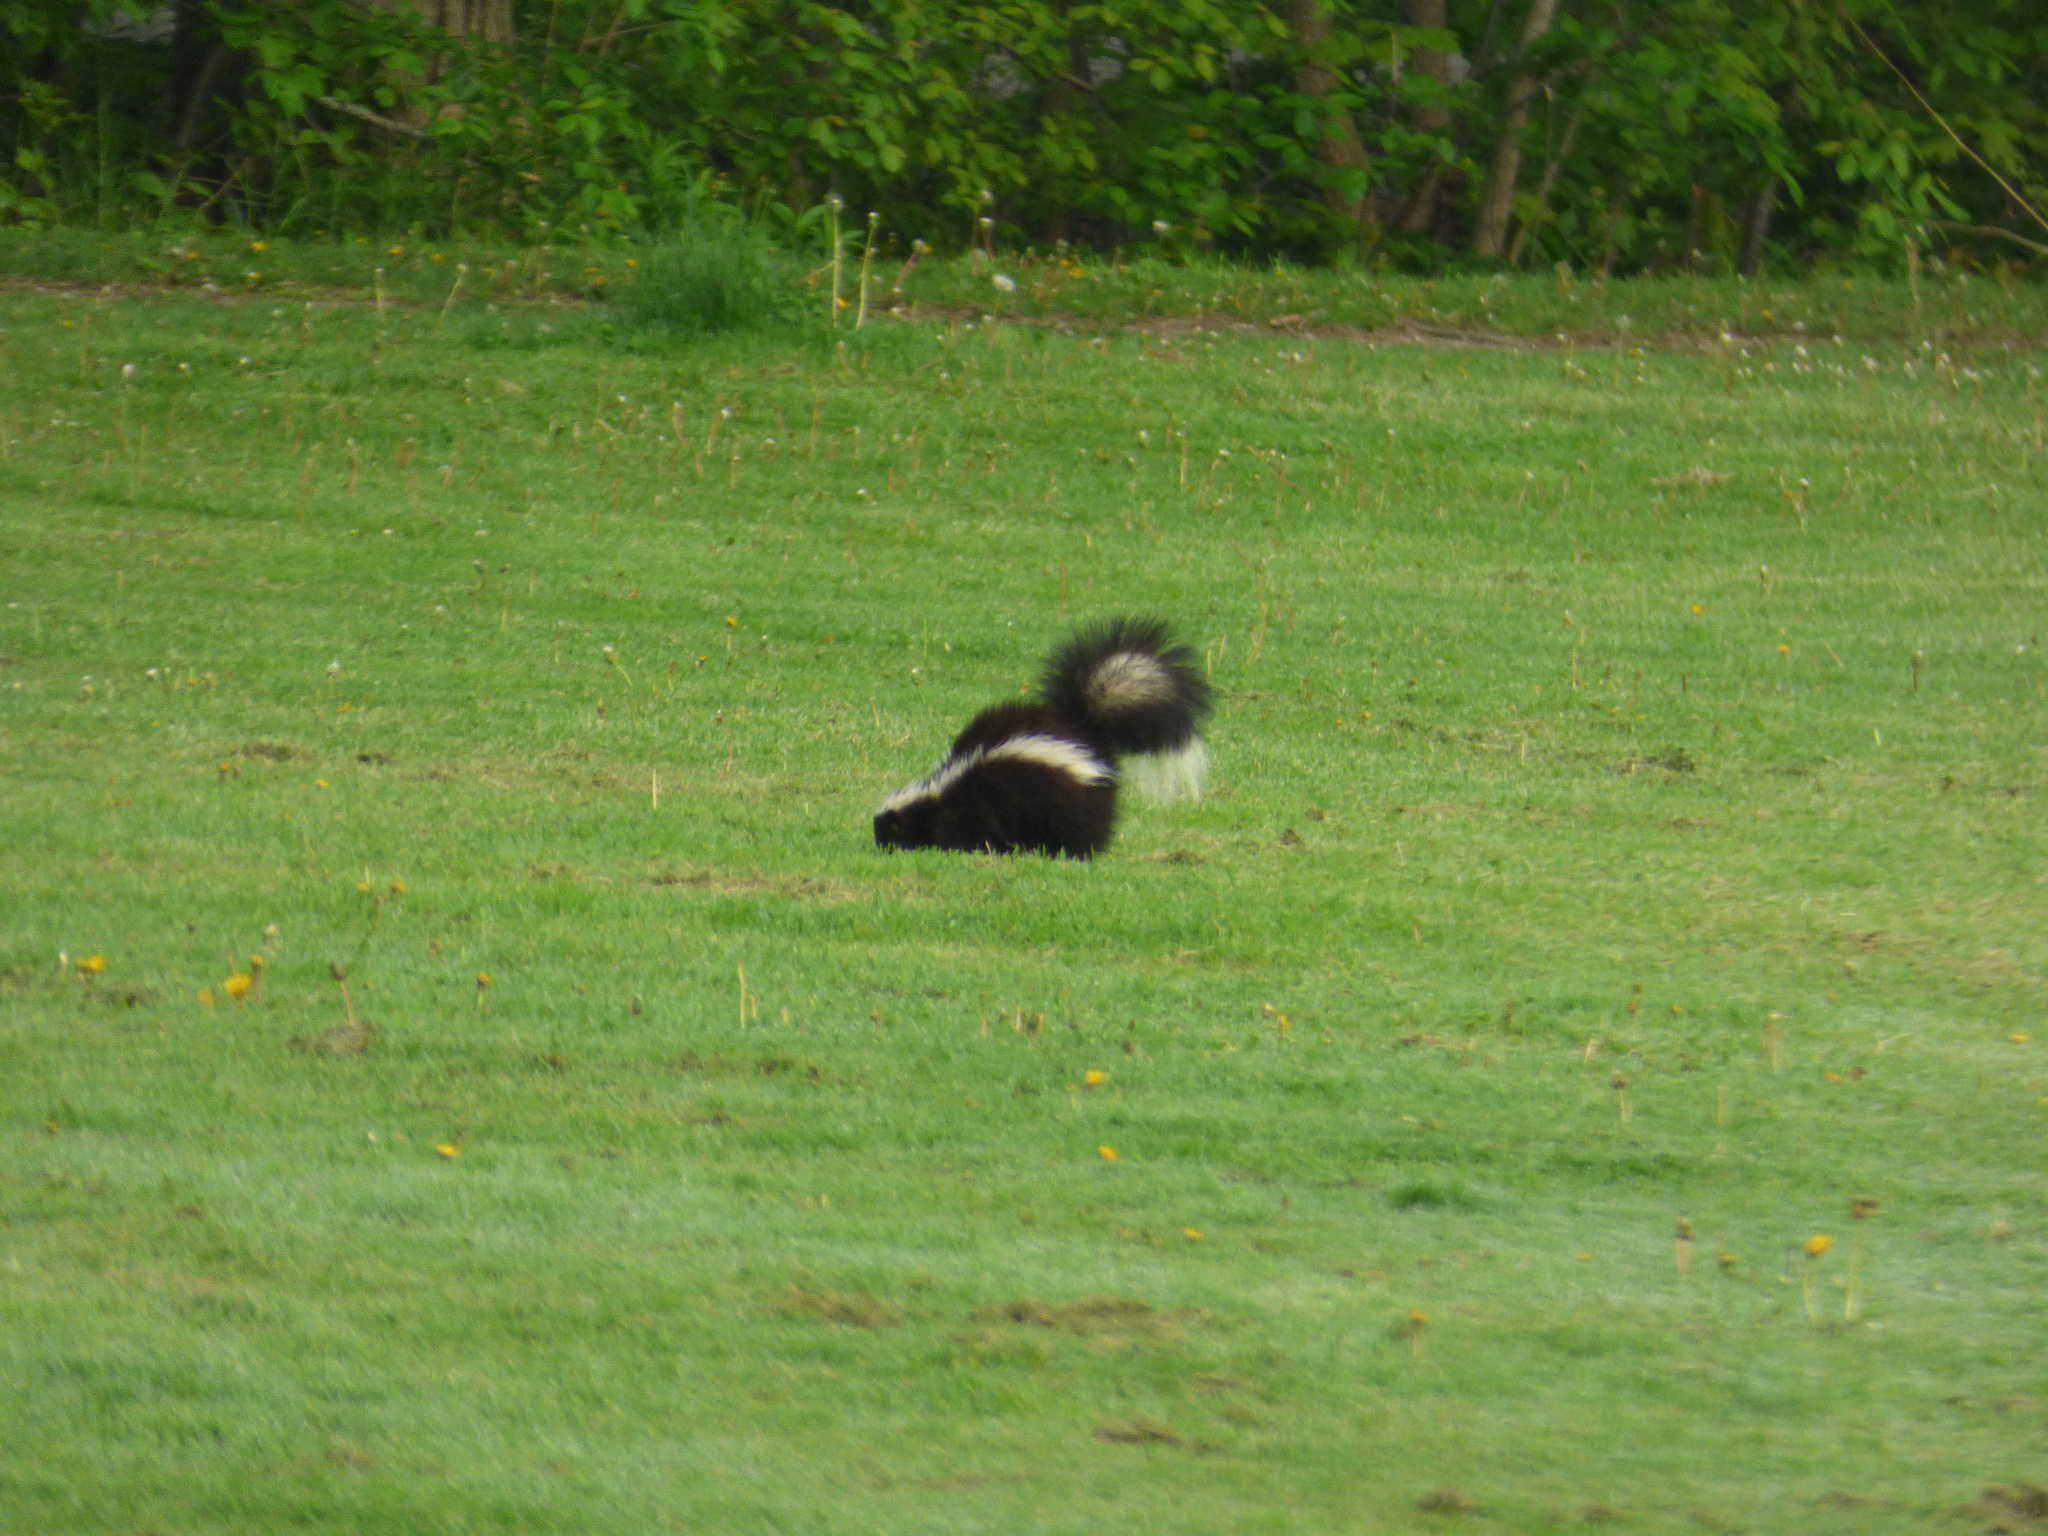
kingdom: Animalia
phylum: Chordata
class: Mammalia
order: Carnivora
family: Mephitidae
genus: Mephitis
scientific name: Mephitis mephitis
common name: Striped skunk
